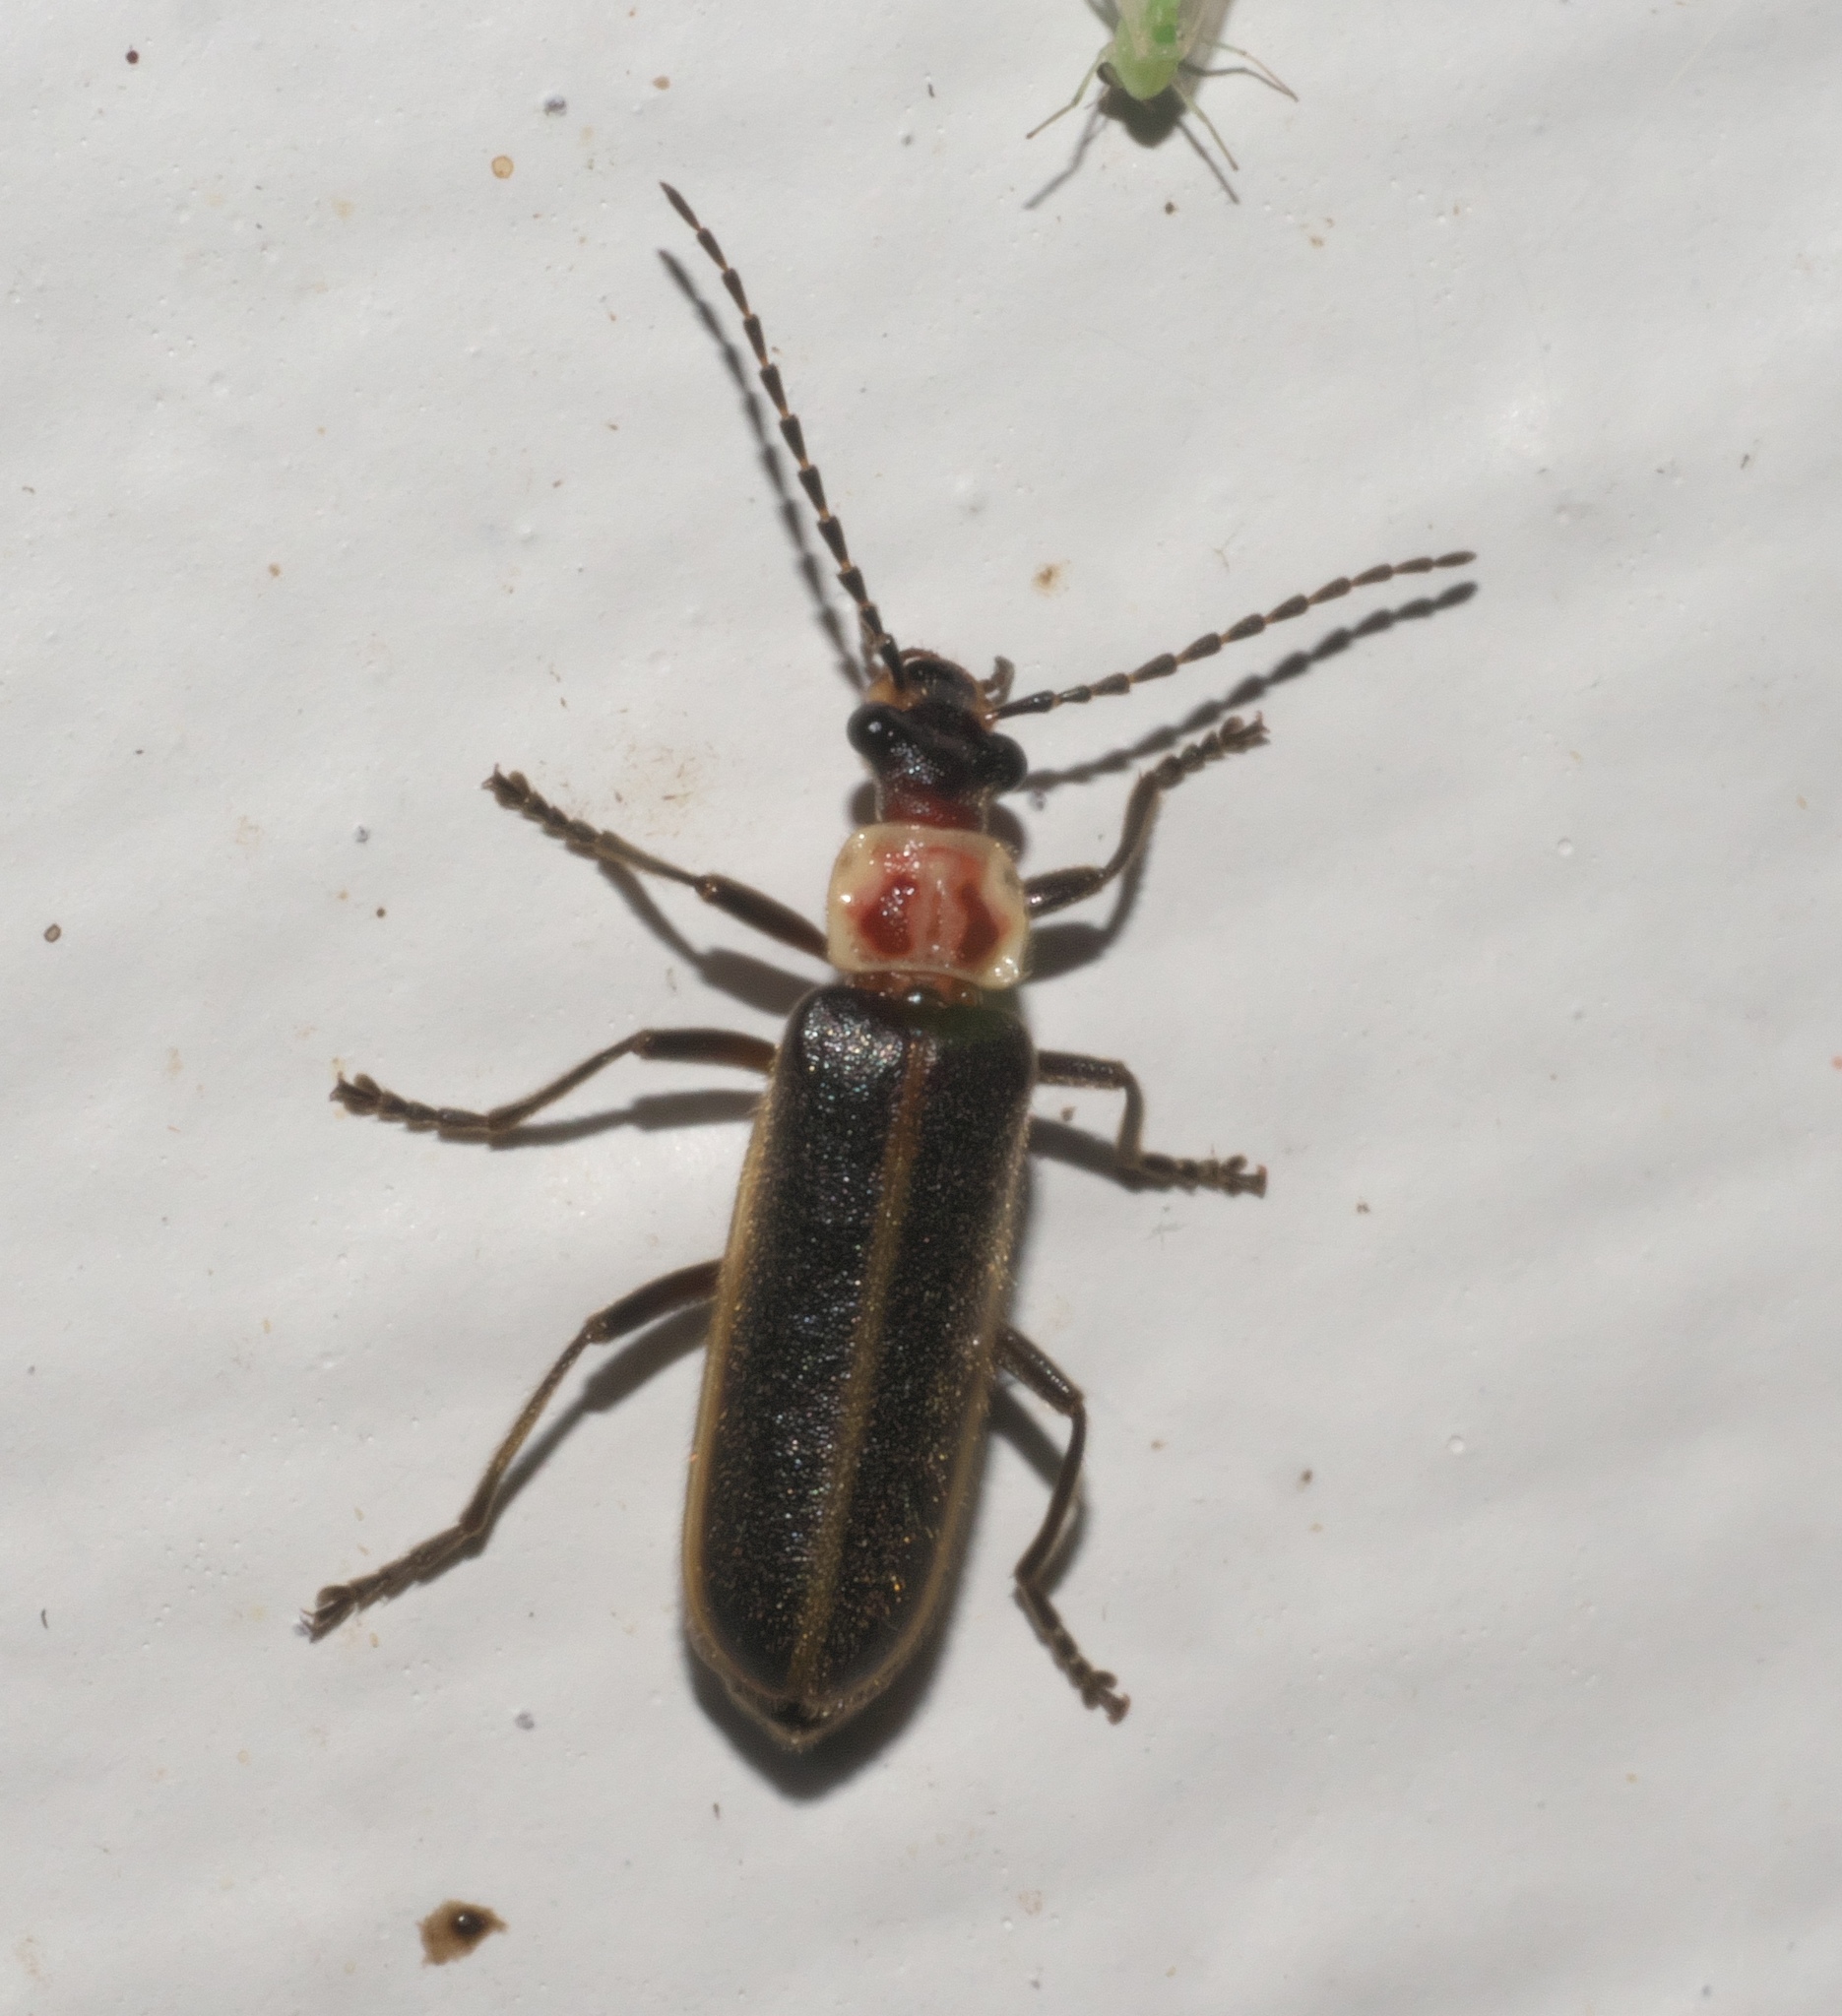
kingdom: Animalia
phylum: Arthropoda
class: Insecta
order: Coleoptera
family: Cantharidae
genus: Podabrus
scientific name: Podabrus knobeli
